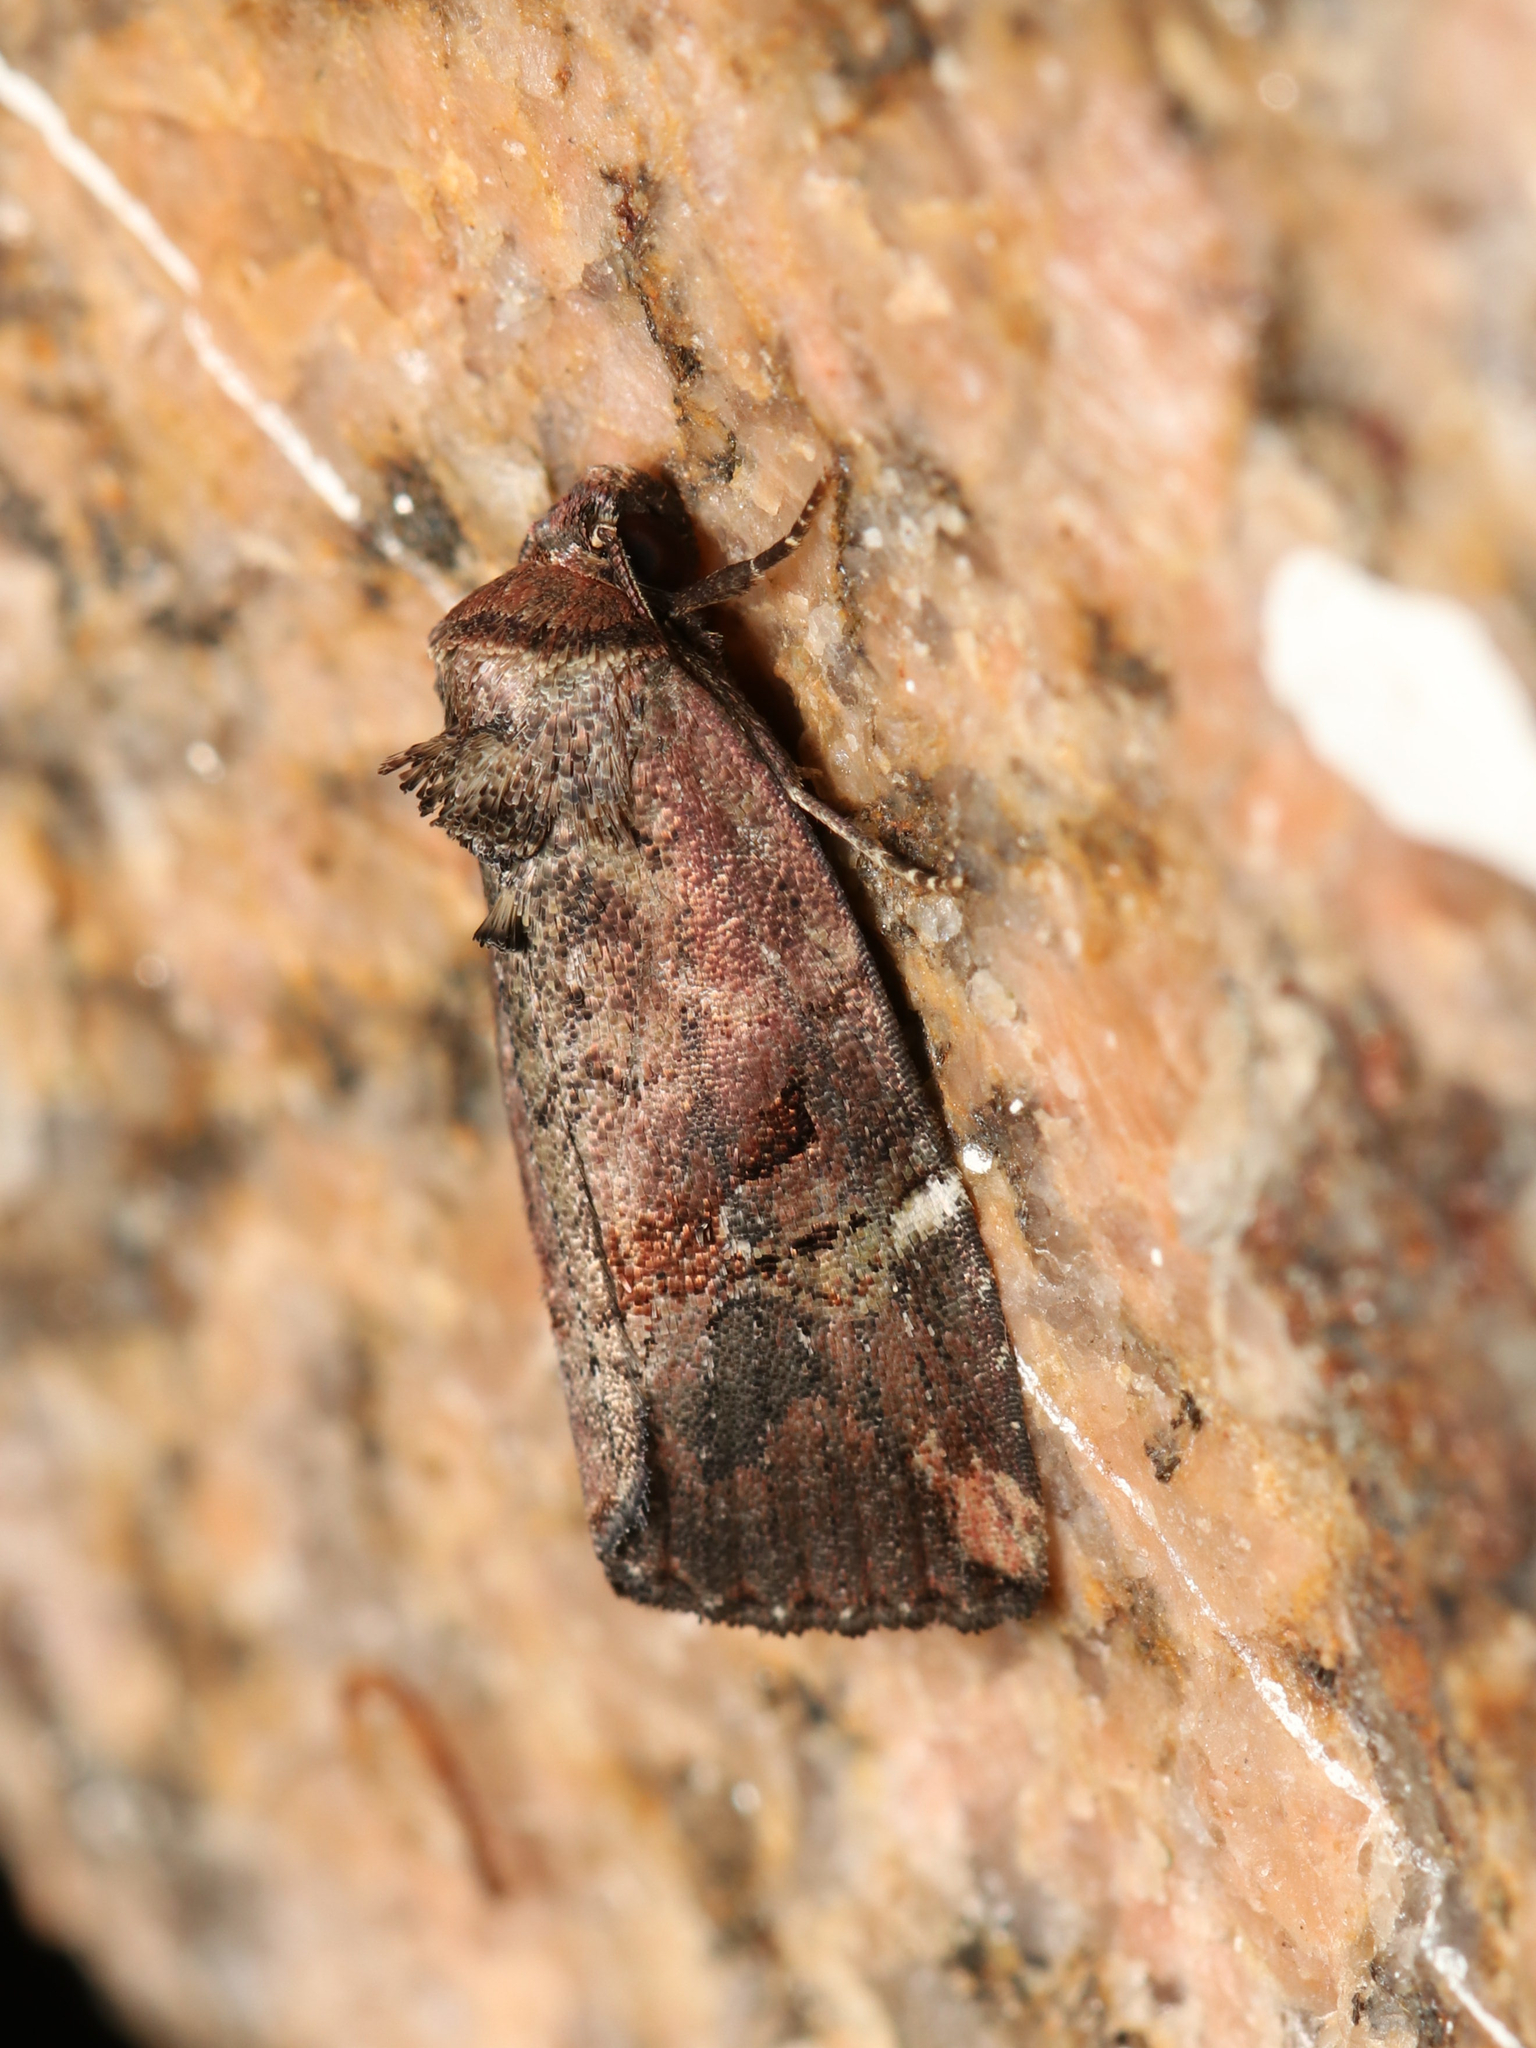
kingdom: Animalia
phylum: Arthropoda
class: Insecta
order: Lepidoptera
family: Noctuidae
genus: Elaphria
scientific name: Elaphria versicolor
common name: Fir harlequin
